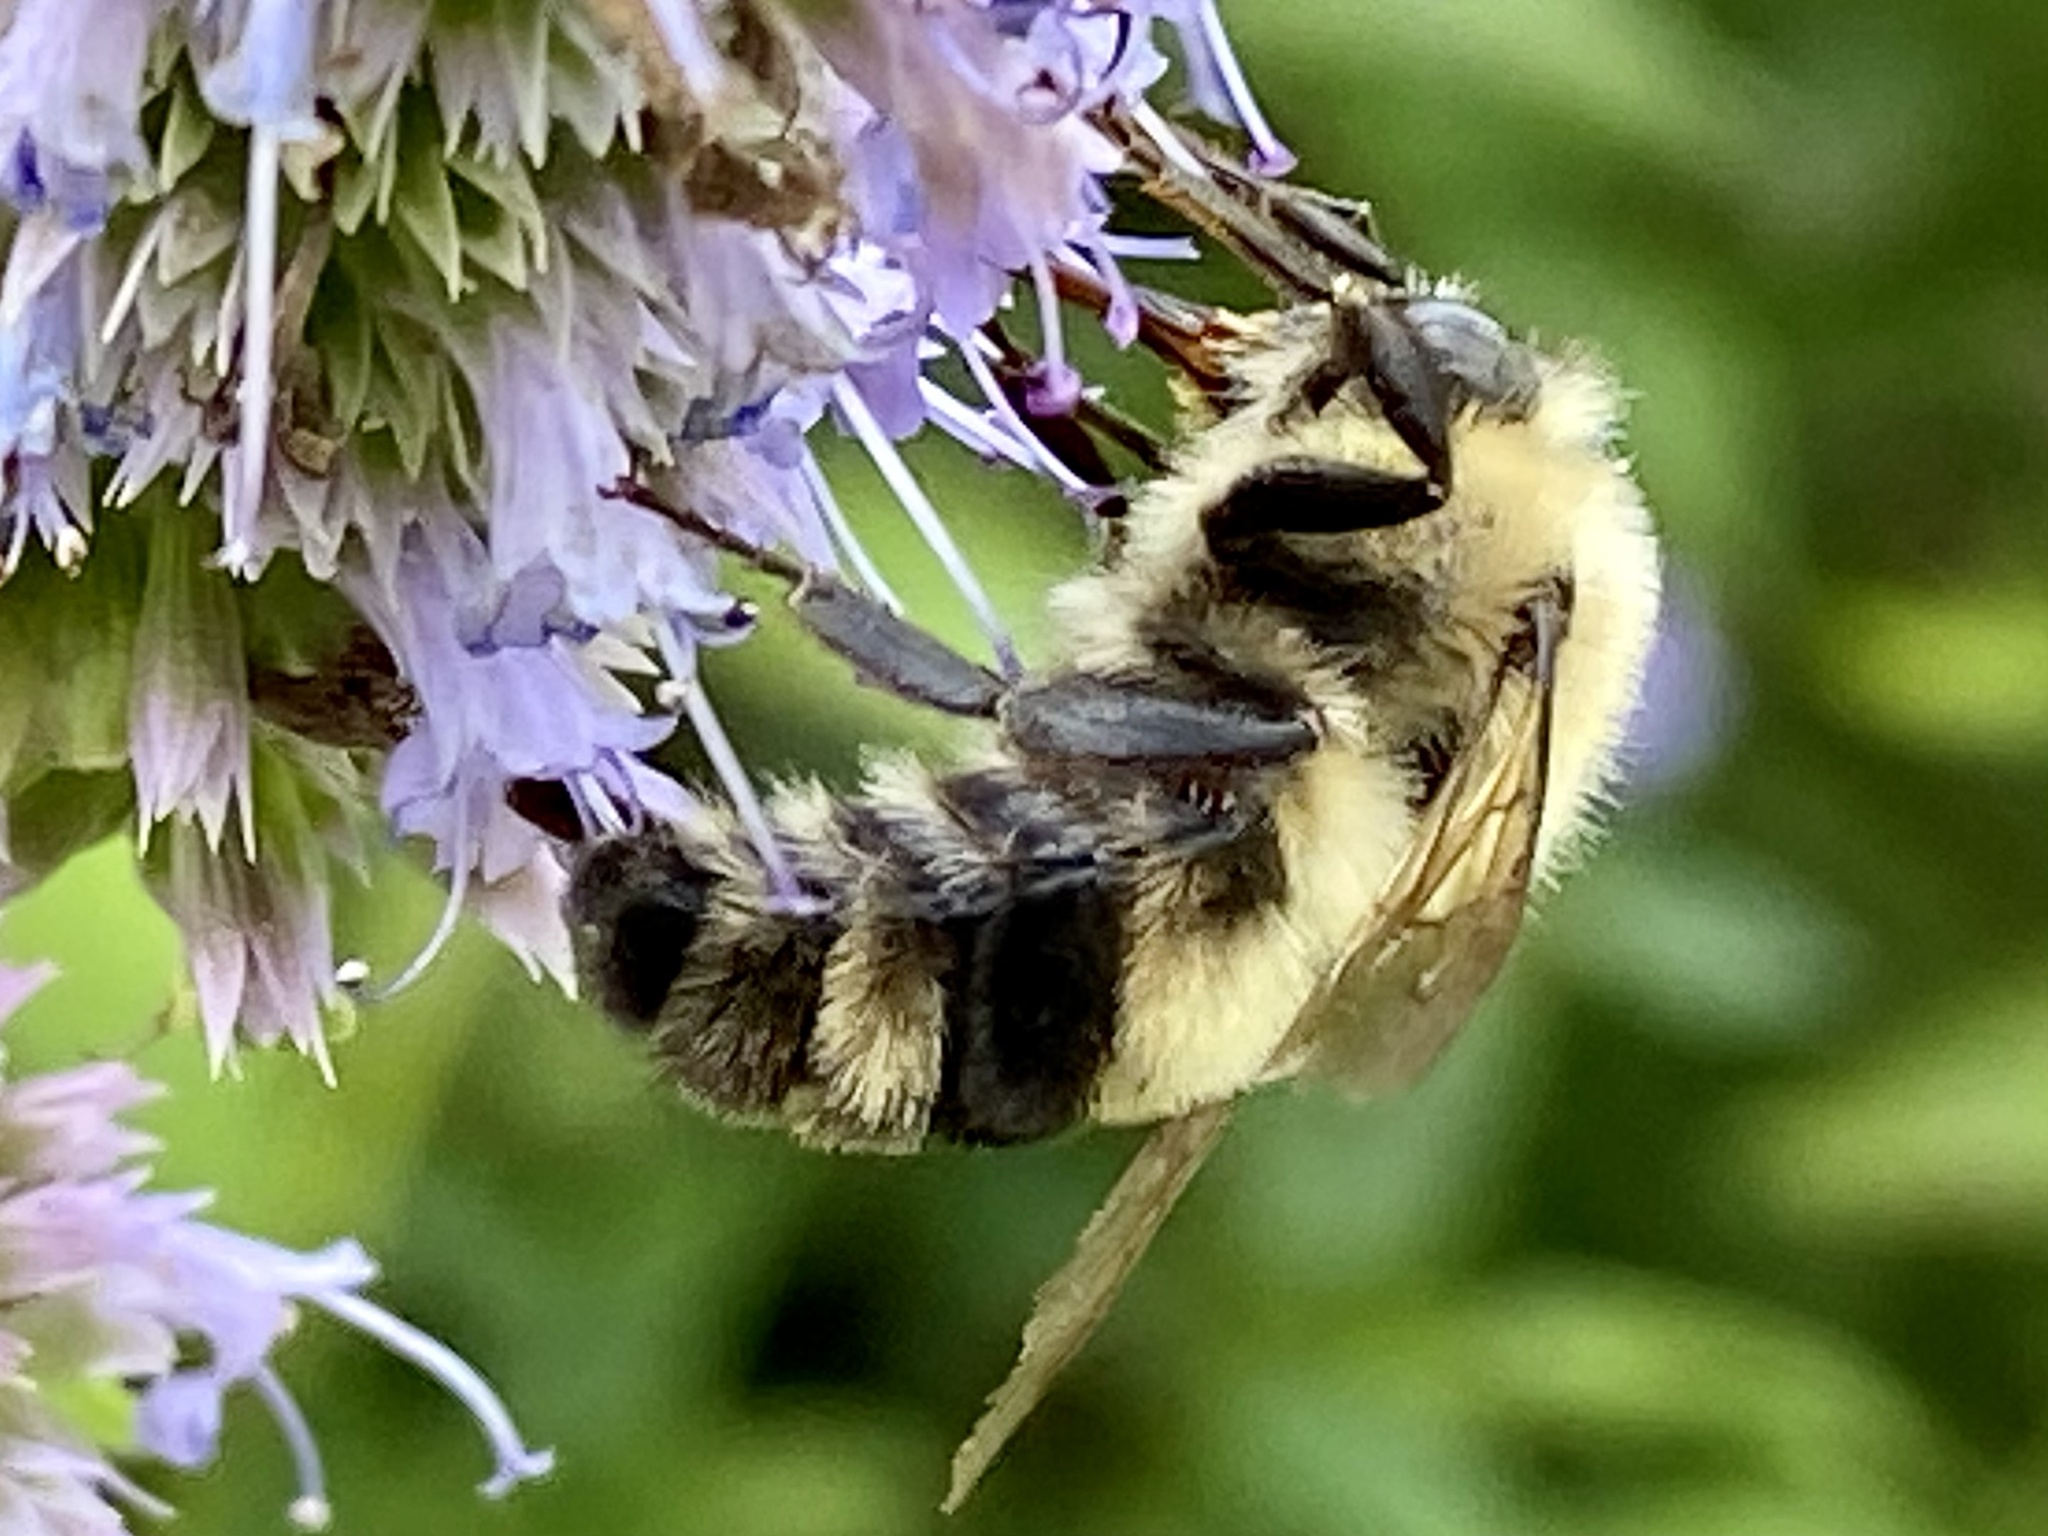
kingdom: Animalia
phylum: Arthropoda
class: Insecta
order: Hymenoptera
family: Apidae
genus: Bombus
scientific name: Bombus bimaculatus
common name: Two-spotted bumble bee
